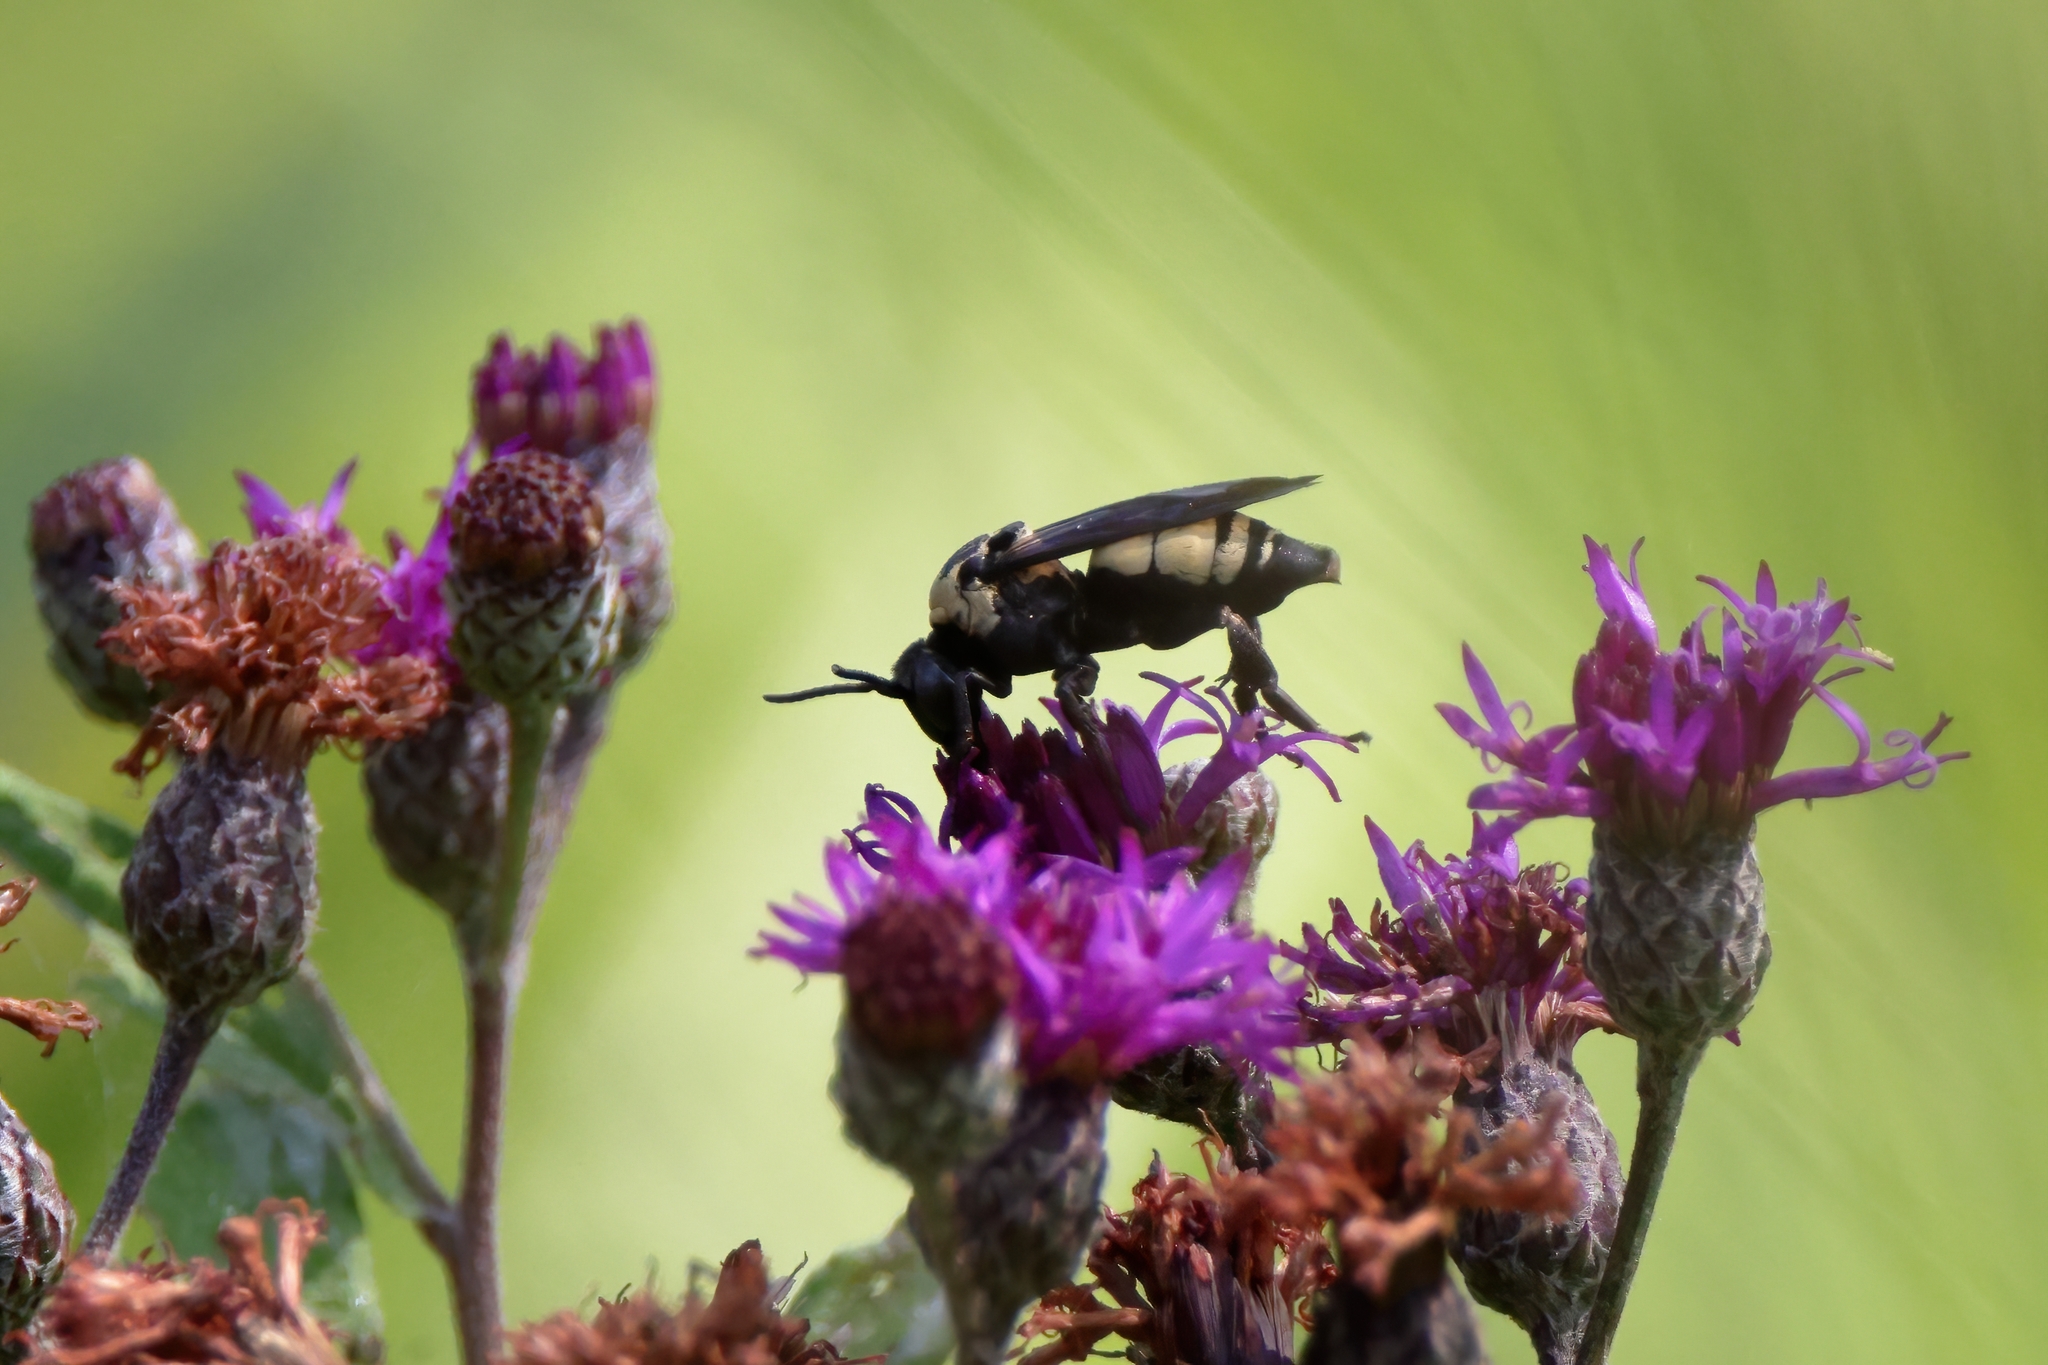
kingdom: Animalia
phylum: Arthropoda
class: Insecta
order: Hymenoptera
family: Apidae
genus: Triepeolus
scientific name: Triepeolus concavus
